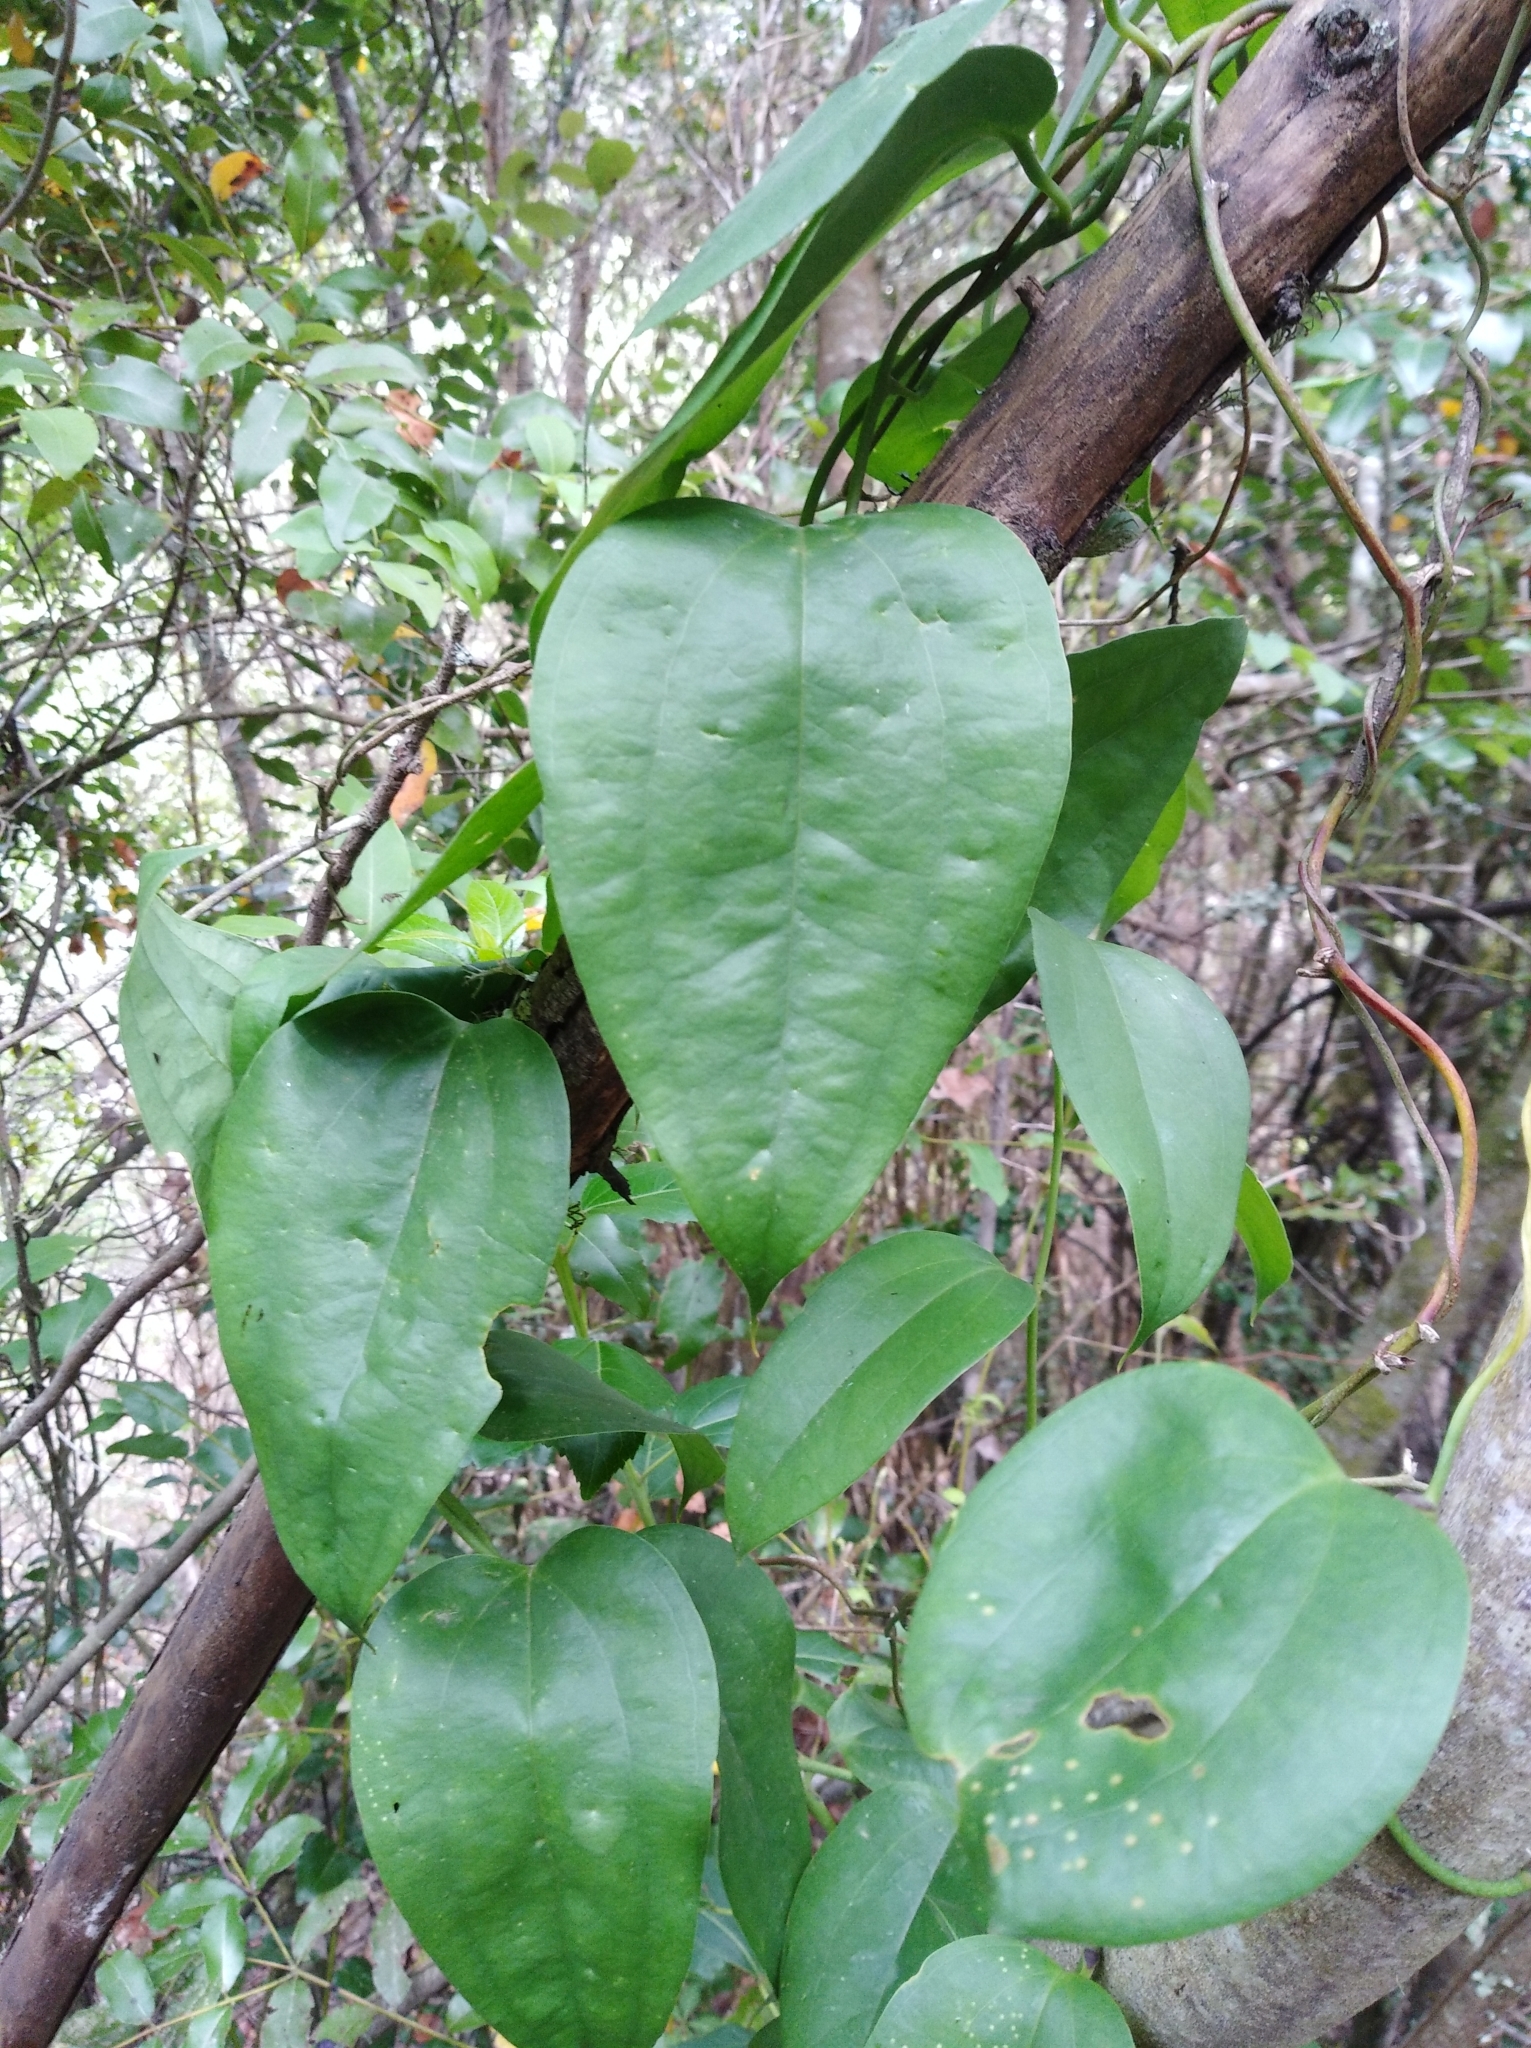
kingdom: Plantae
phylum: Tracheophyta
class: Liliopsida
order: Liliales
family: Philesiaceae
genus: Lapageria
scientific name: Lapageria rosea
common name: Chilean-bellflower
